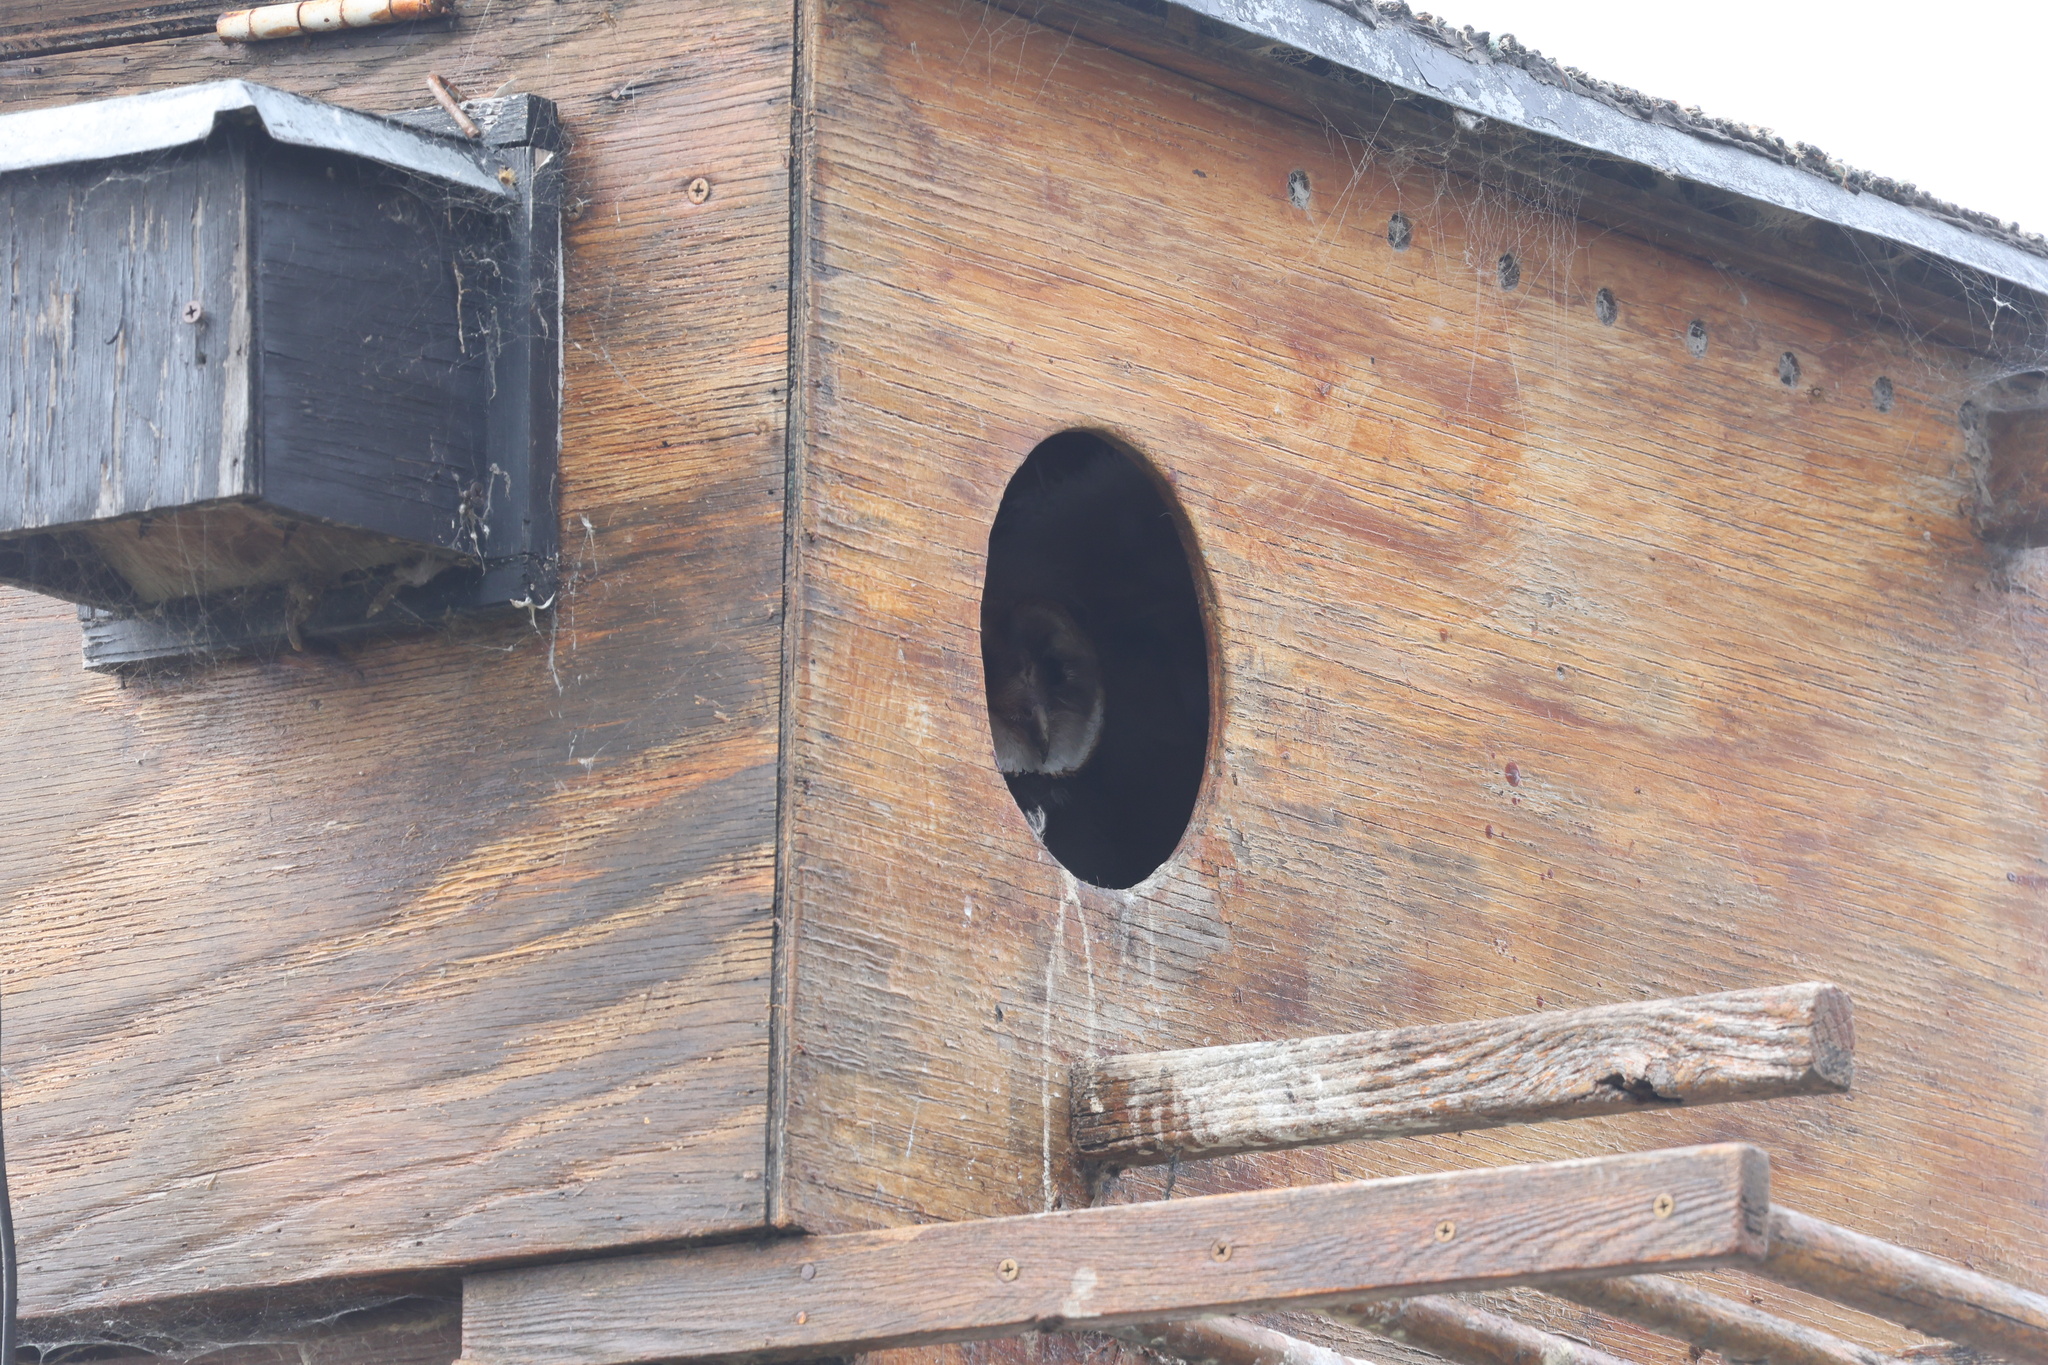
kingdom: Animalia
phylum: Chordata
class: Aves
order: Strigiformes
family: Tytonidae
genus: Tyto
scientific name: Tyto alba
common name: Barn owl
